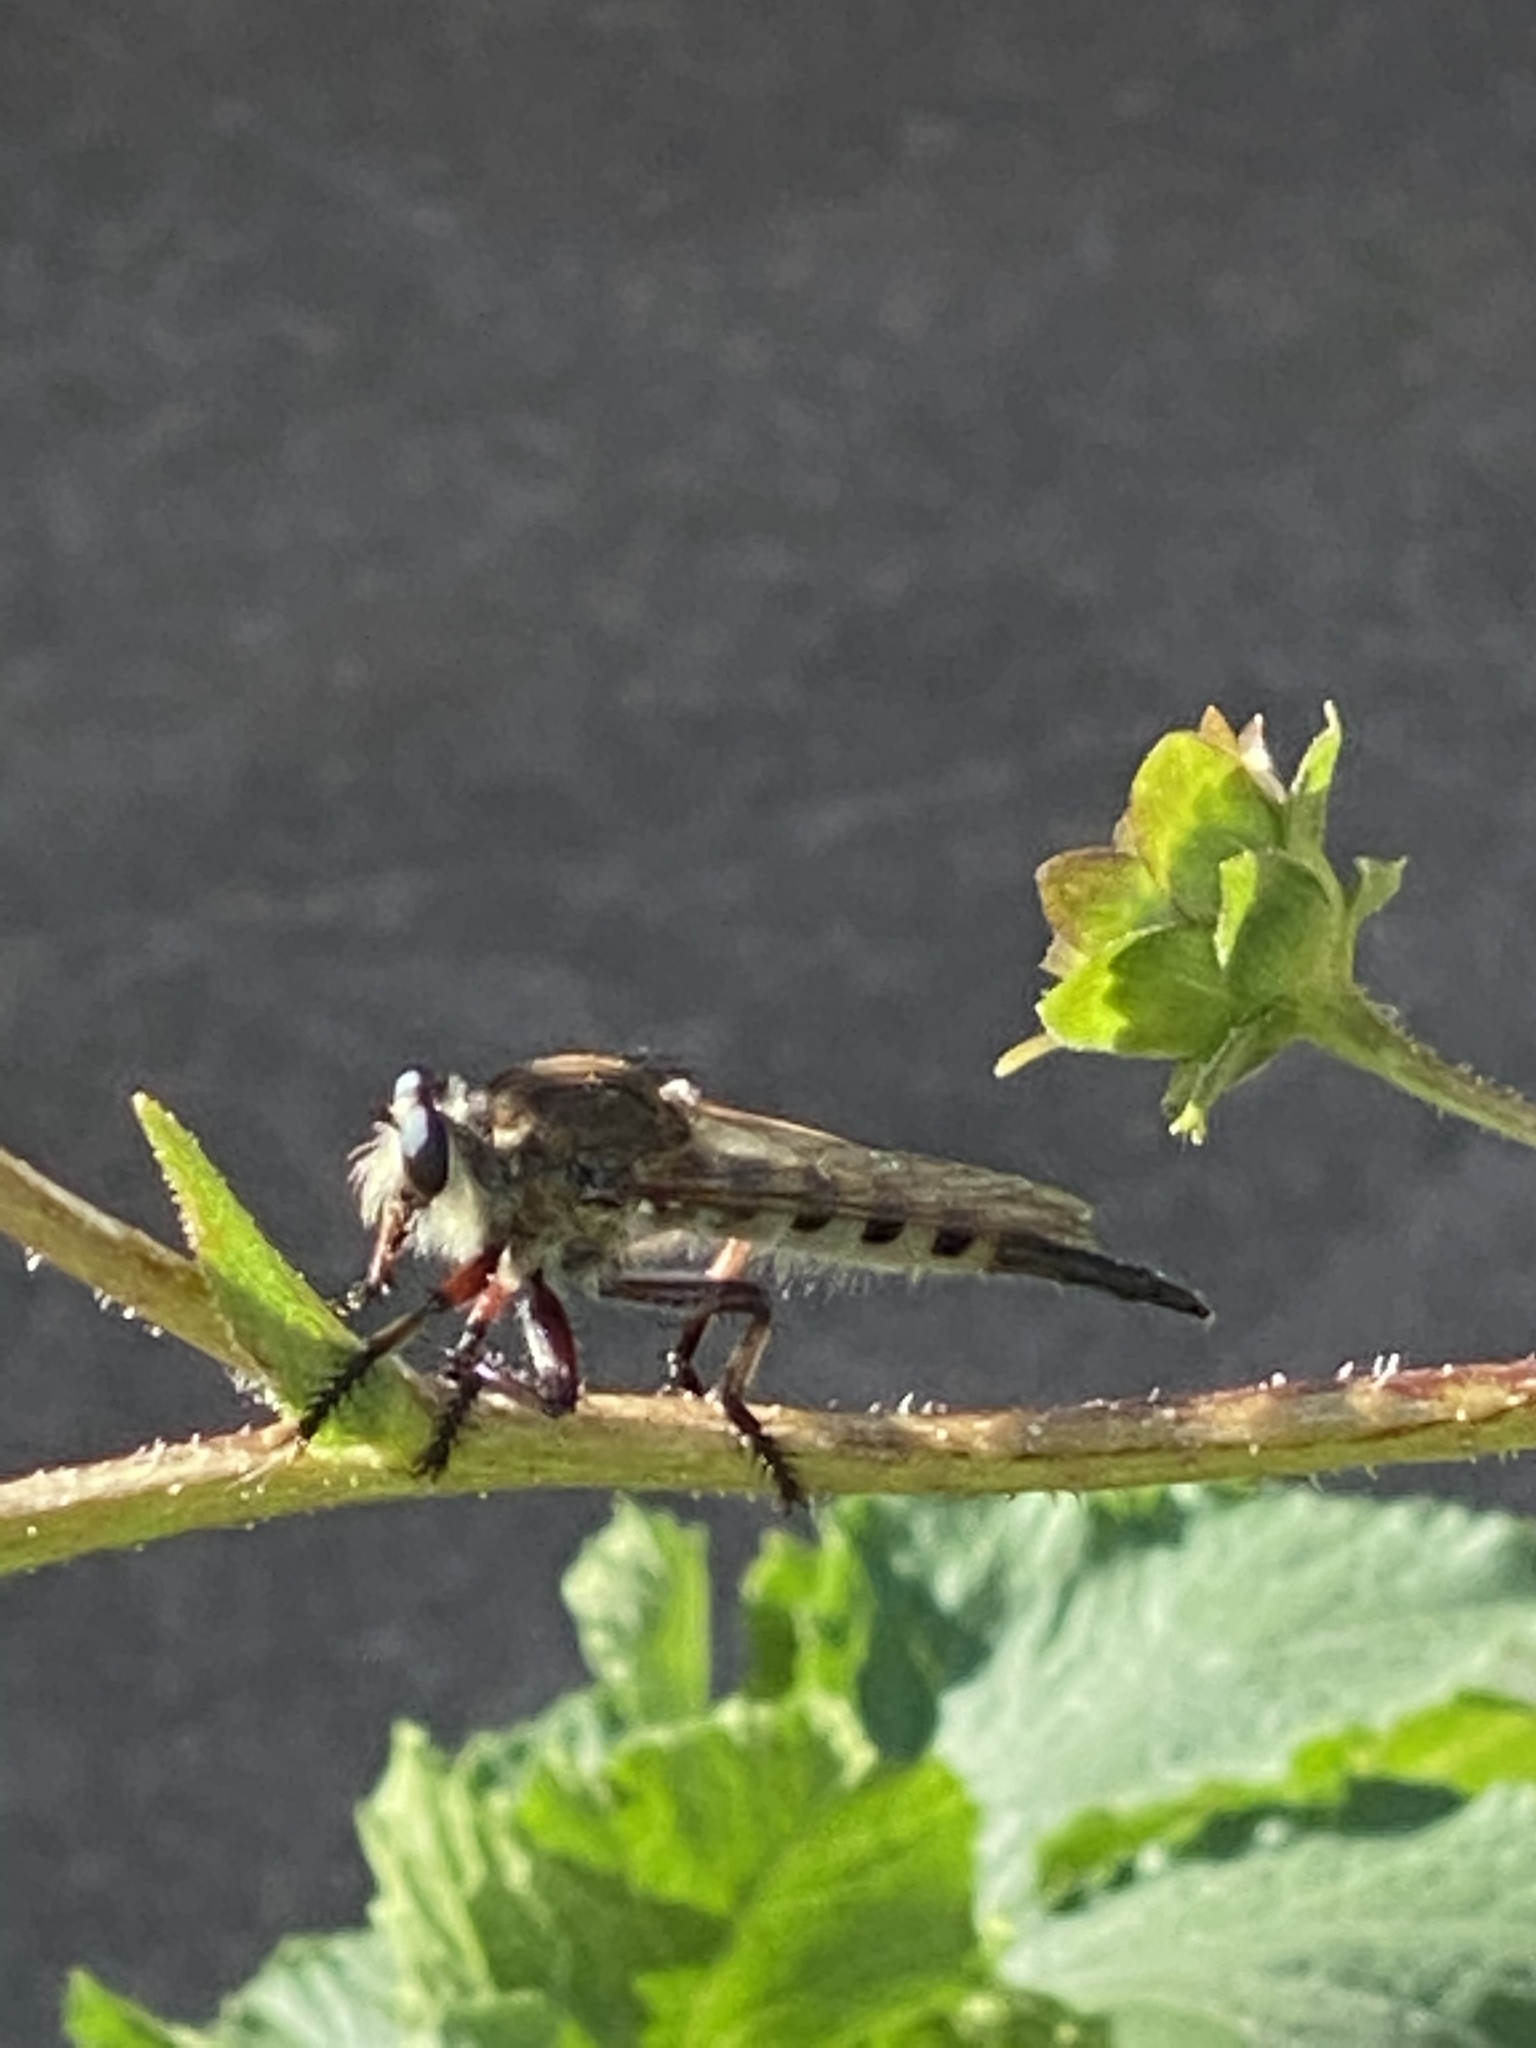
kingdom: Animalia
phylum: Arthropoda
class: Insecta
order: Diptera
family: Asilidae
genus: Promachus
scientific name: Promachus hinei
